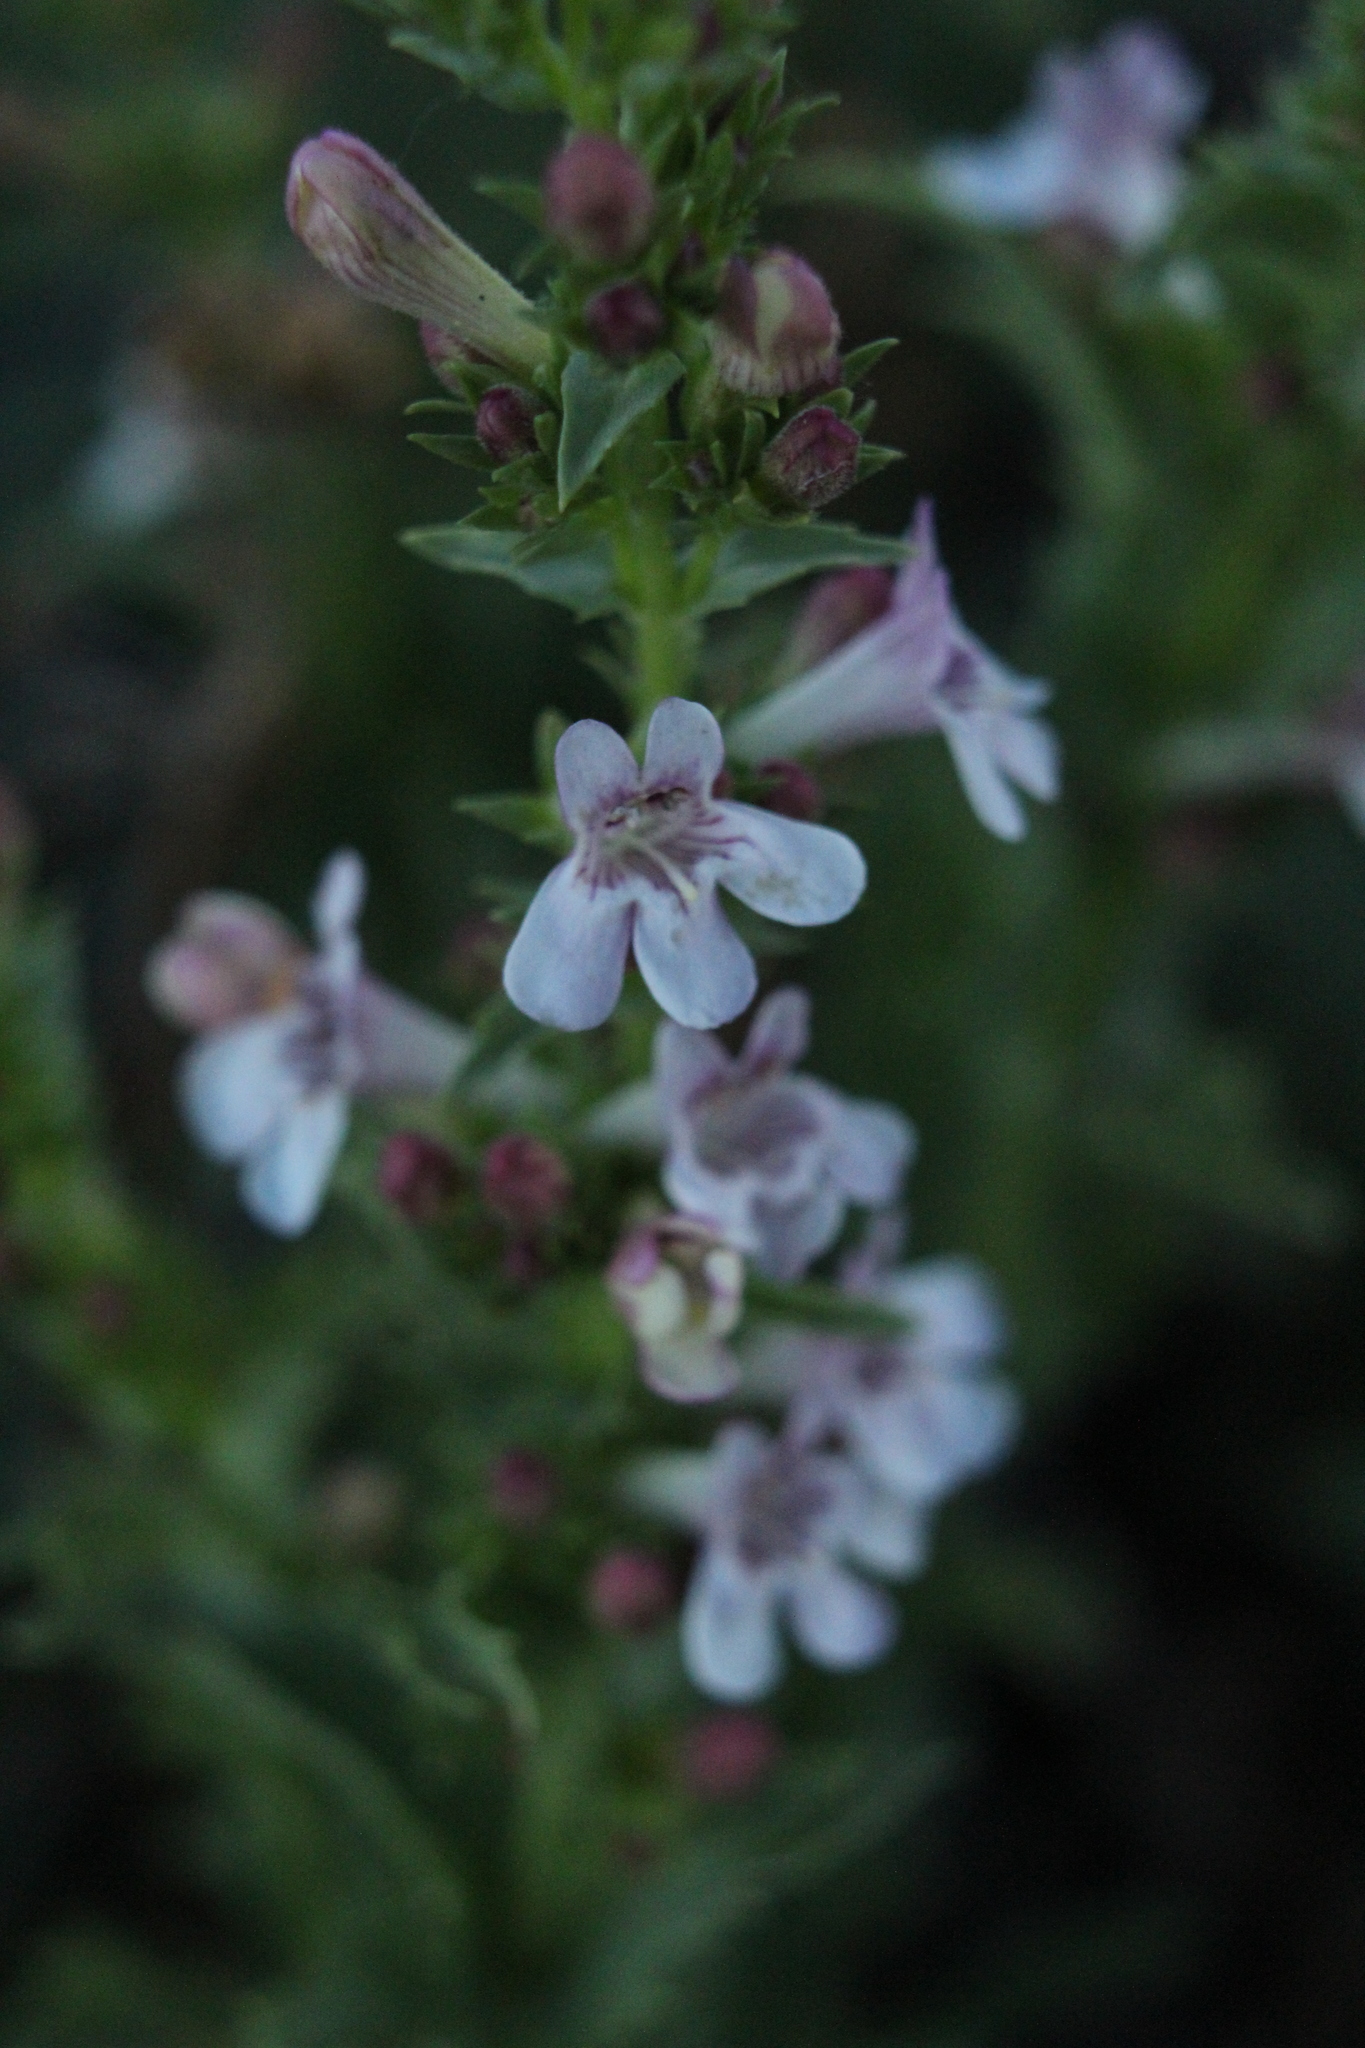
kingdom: Plantae
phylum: Tracheophyta
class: Magnoliopsida
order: Lamiales
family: Plantaginaceae
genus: Penstemon
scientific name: Penstemon deustus
